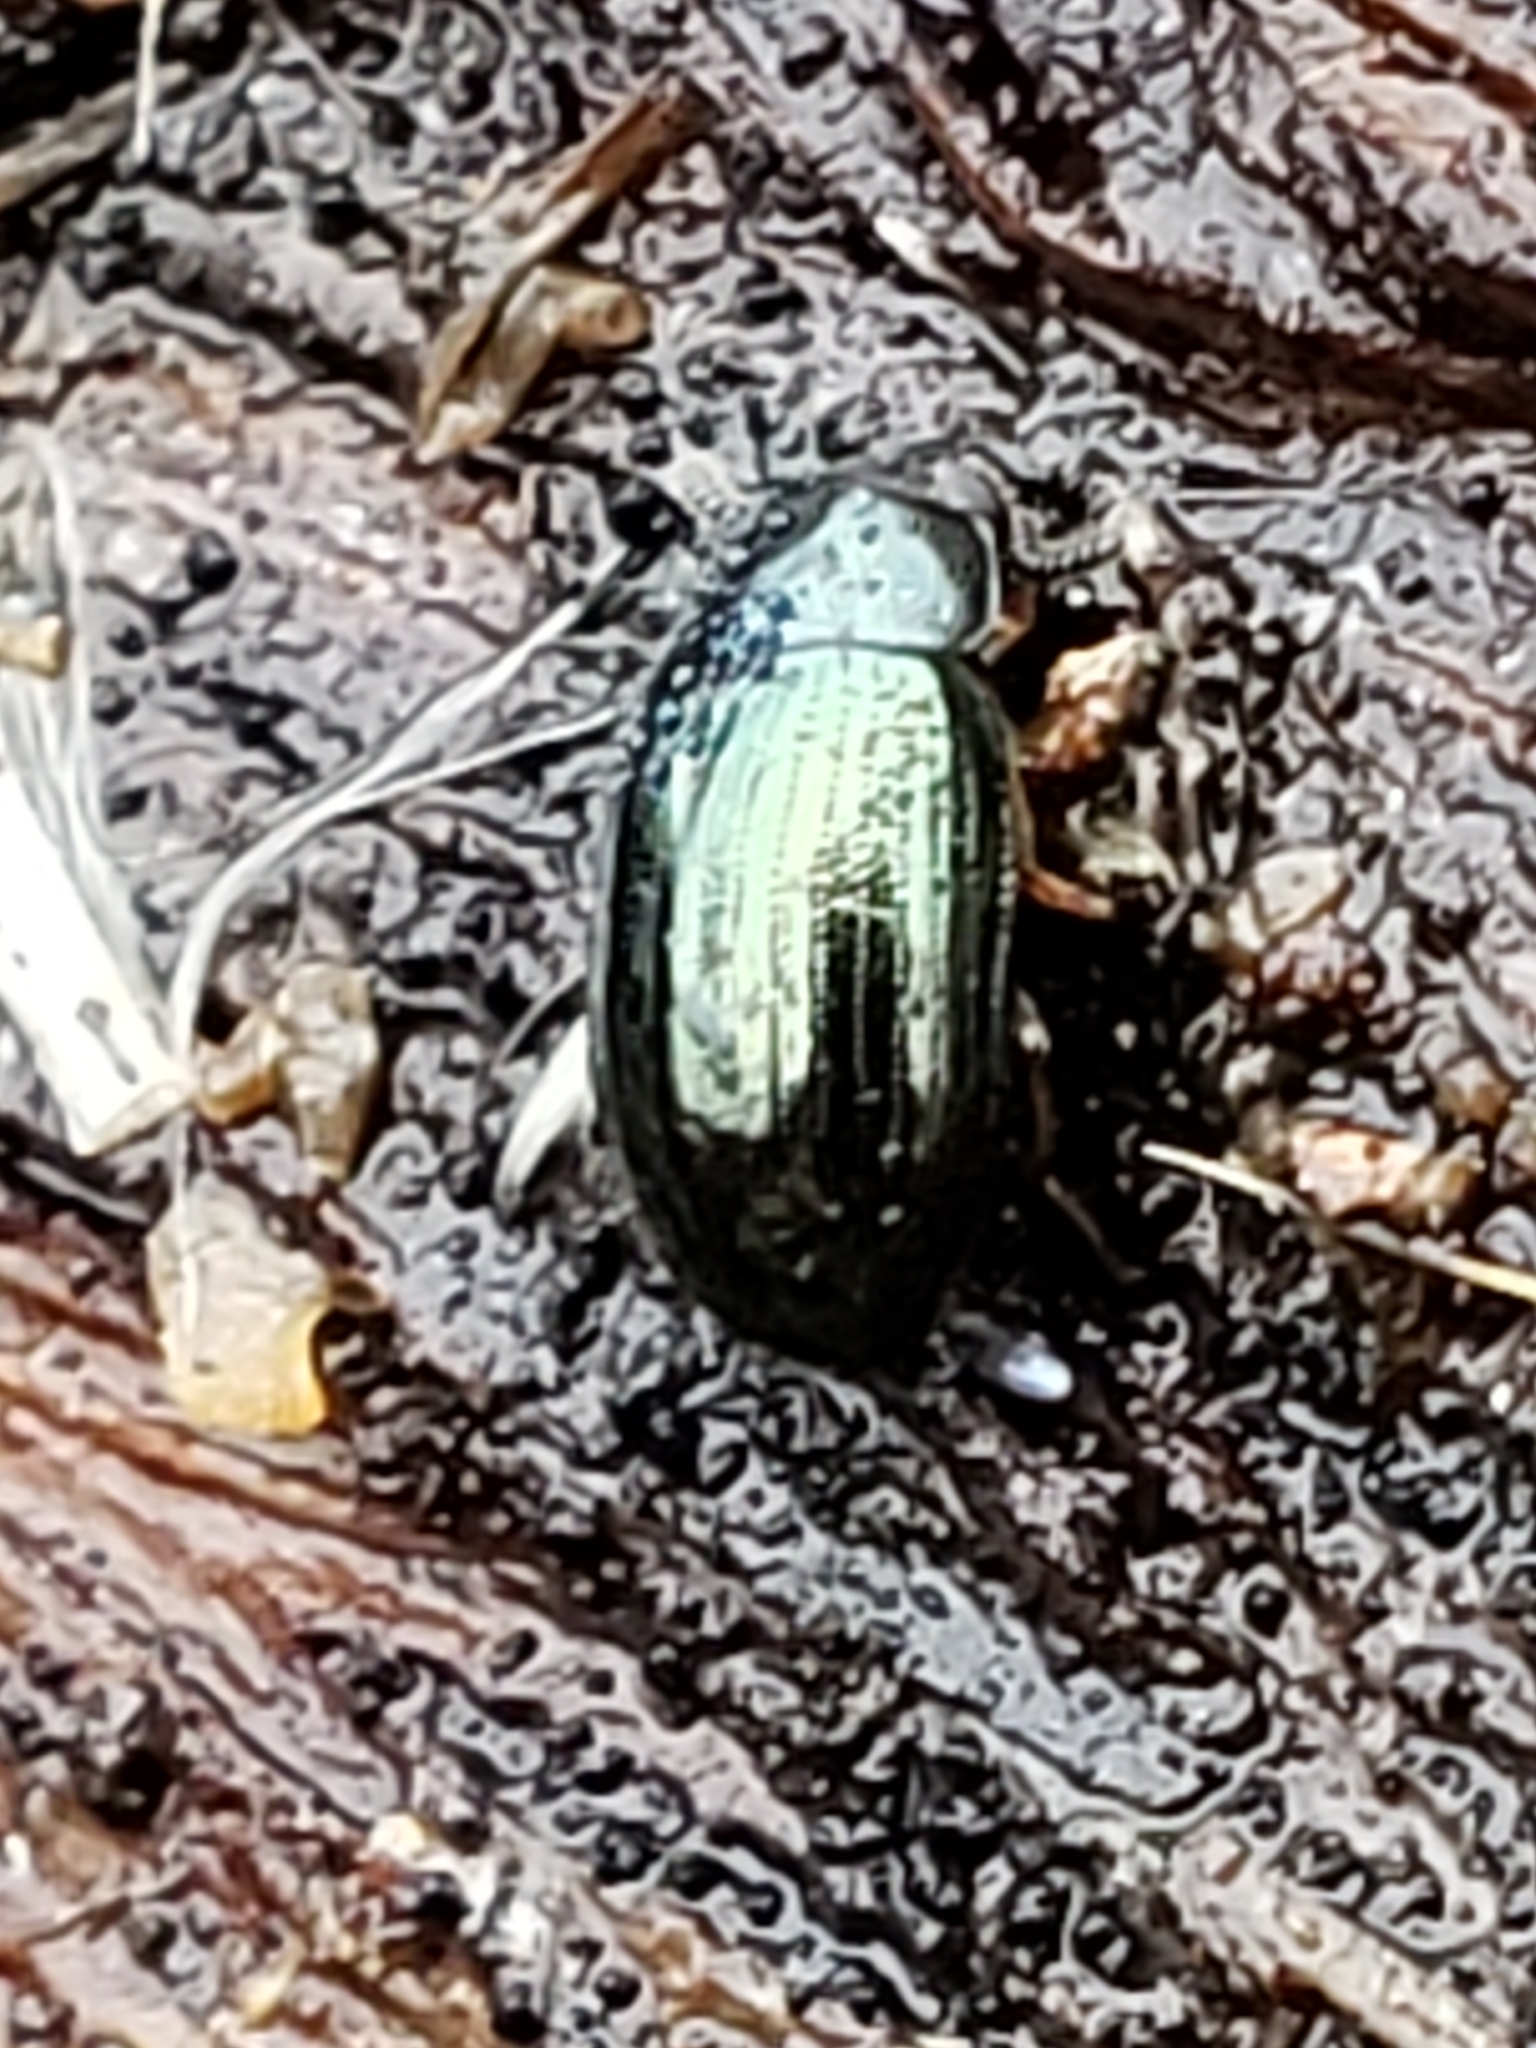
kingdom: Animalia
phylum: Arthropoda
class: Insecta
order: Coleoptera
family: Tenebrionidae
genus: Neomida
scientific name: Neomida bicornis
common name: Two-horned darkling beetle
